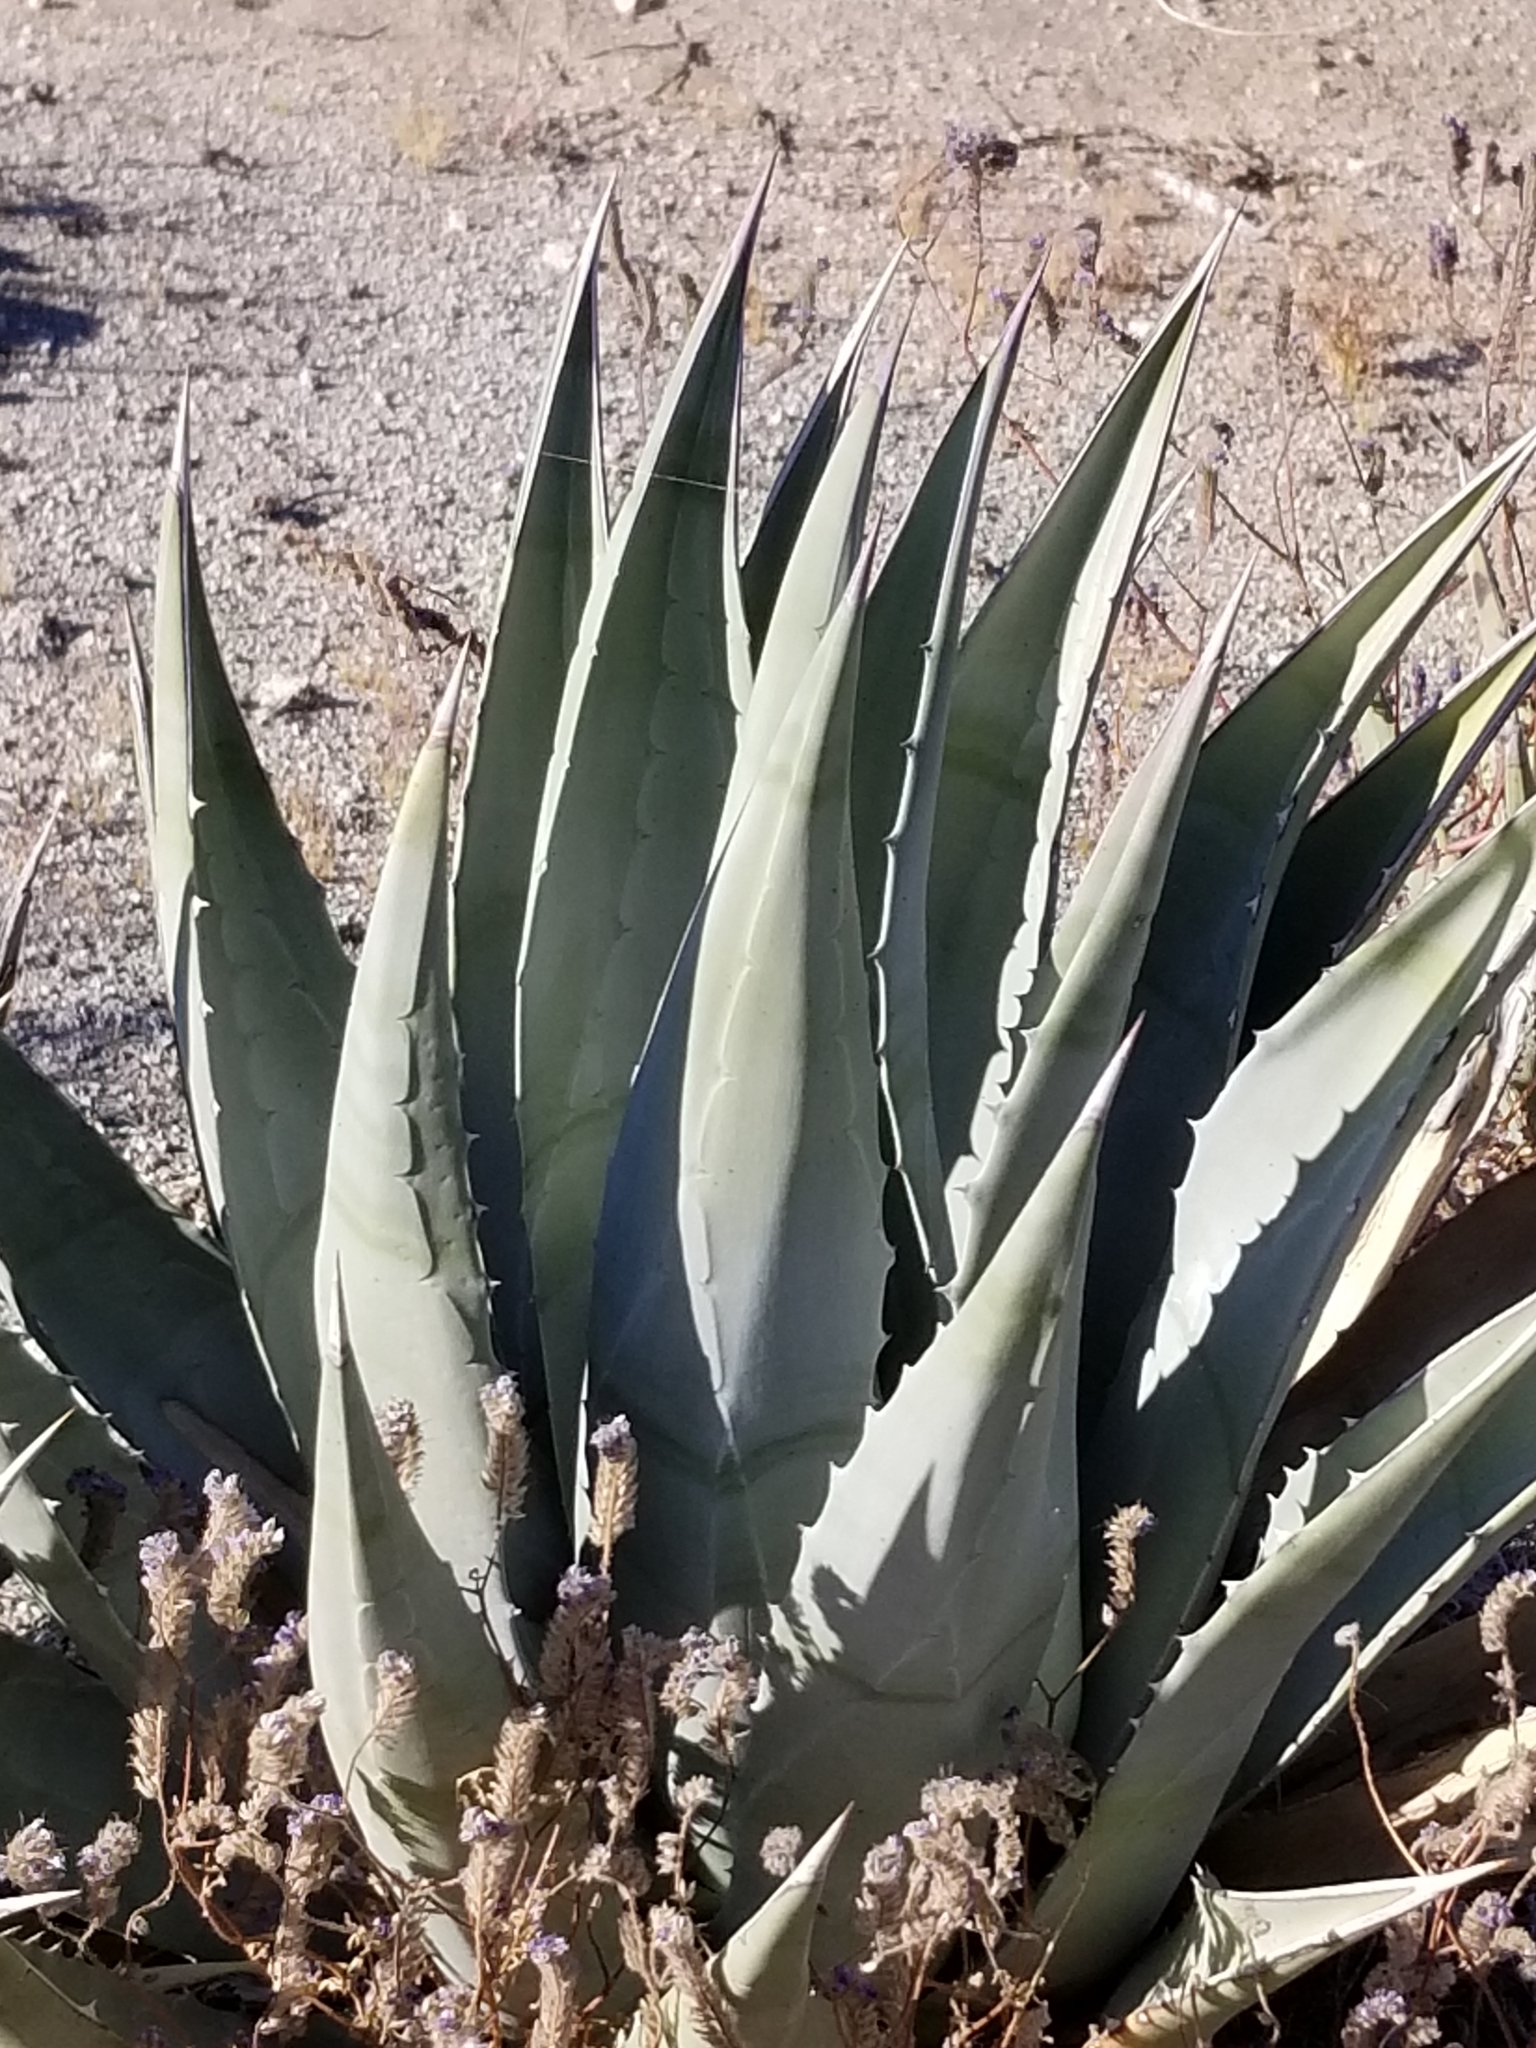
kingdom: Plantae
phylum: Tracheophyta
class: Liliopsida
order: Asparagales
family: Asparagaceae
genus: Agave
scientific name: Agave deserti
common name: Desert agave
